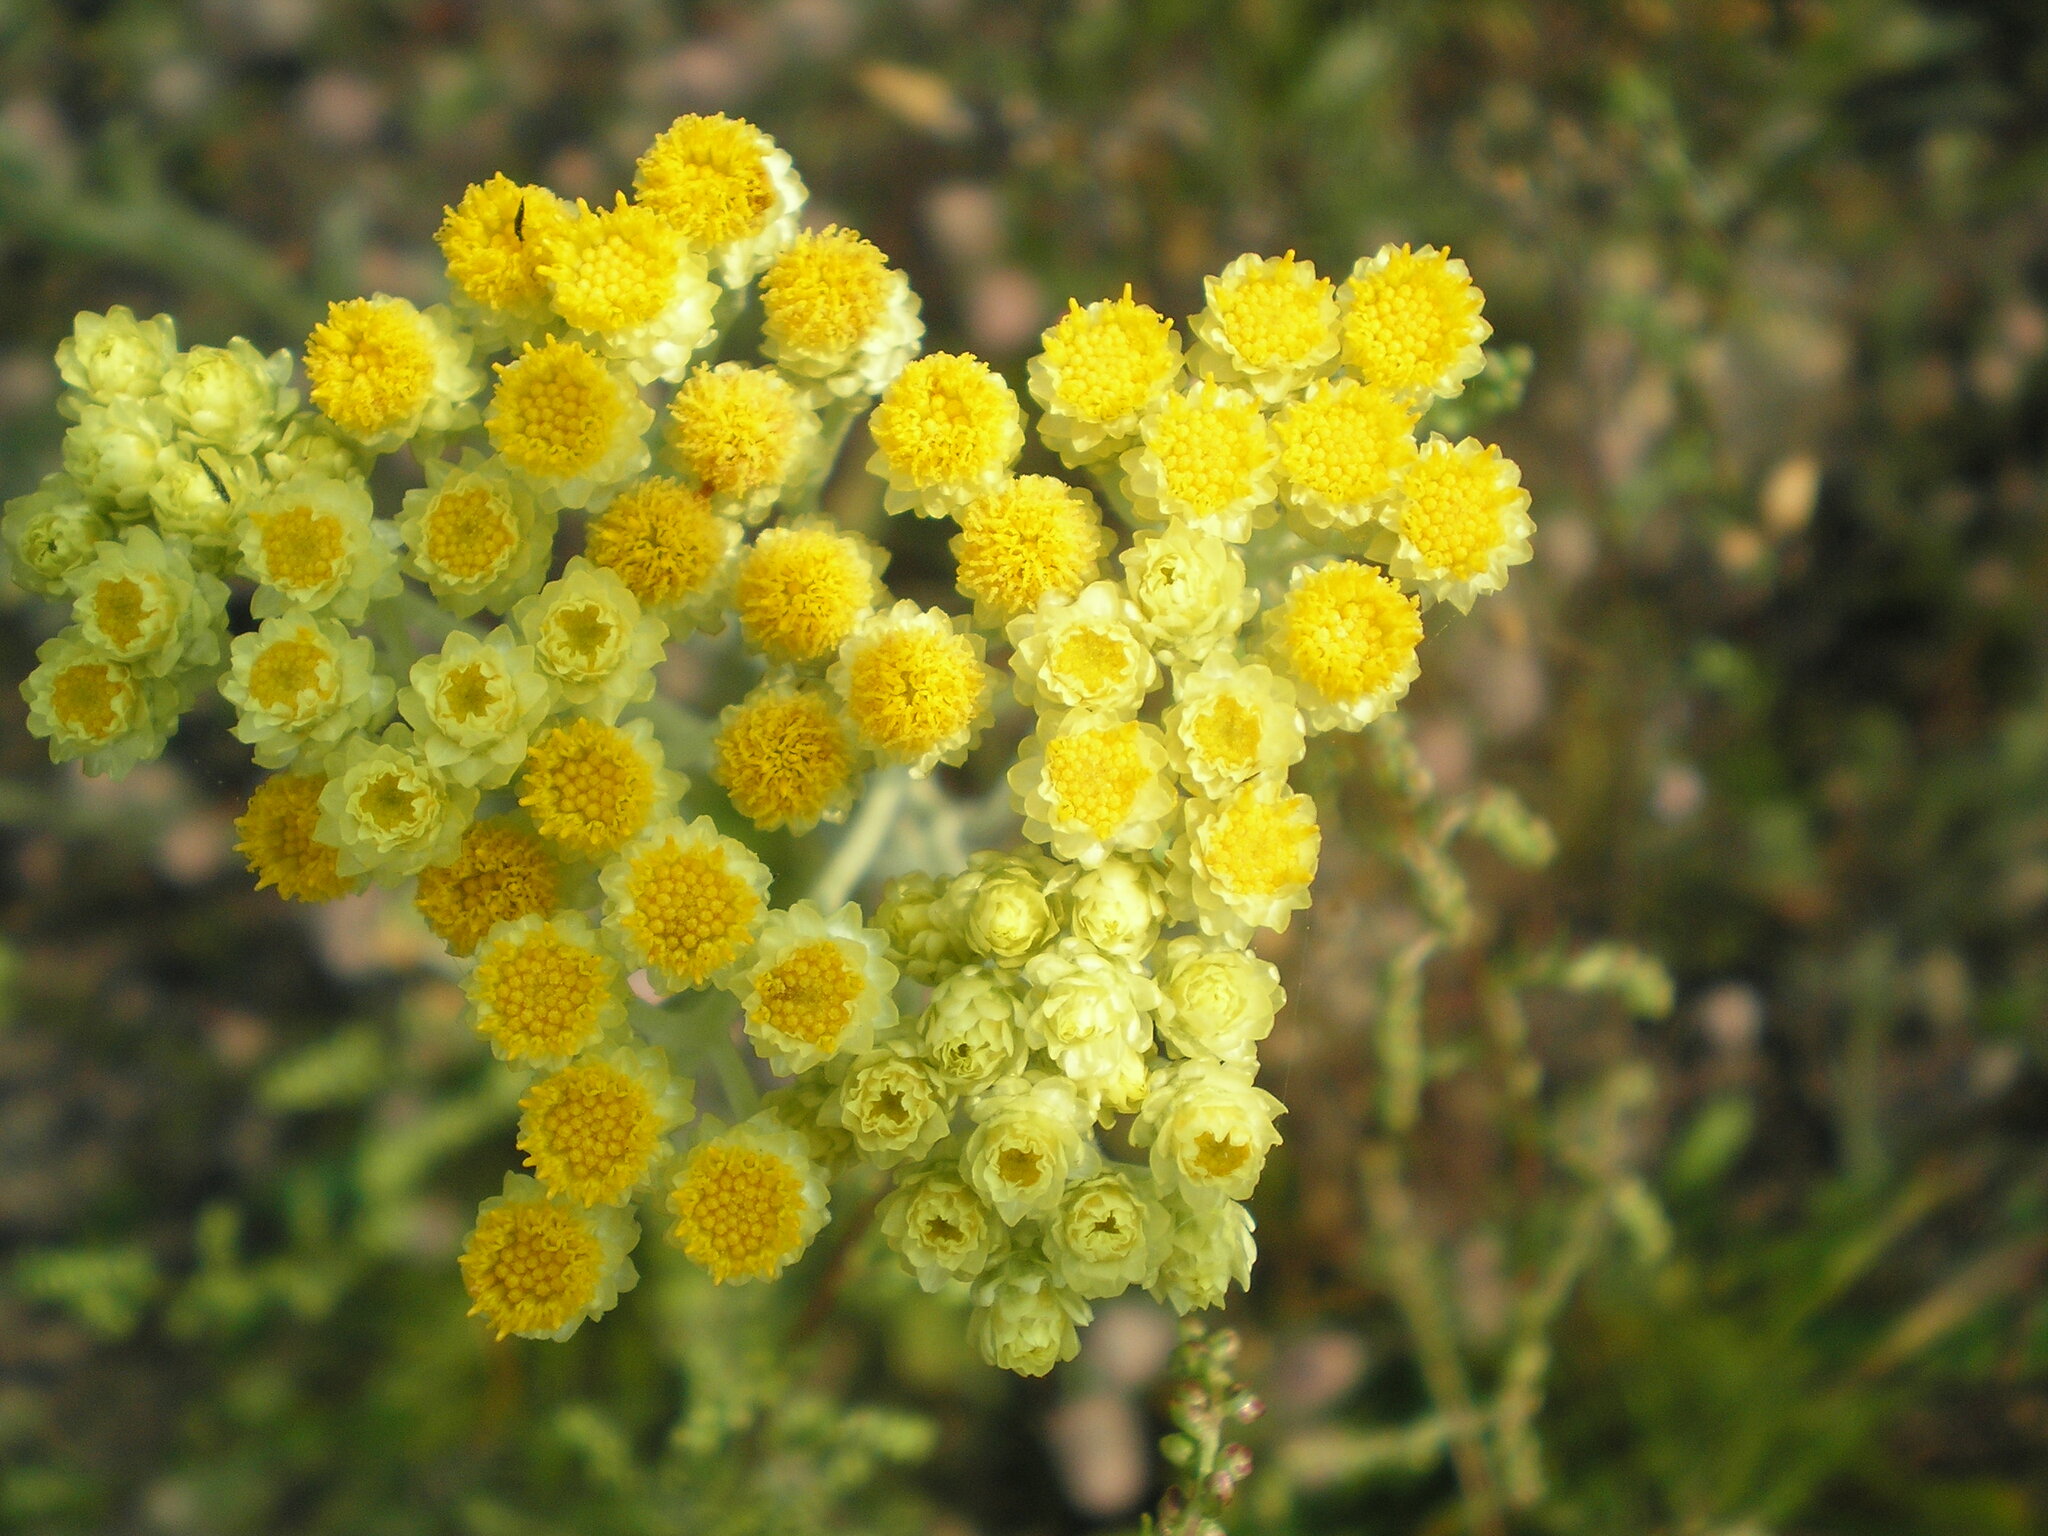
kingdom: Plantae
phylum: Tracheophyta
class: Magnoliopsida
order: Asterales
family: Asteraceae
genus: Helichrysum
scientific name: Helichrysum arenarium
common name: Strawflower
